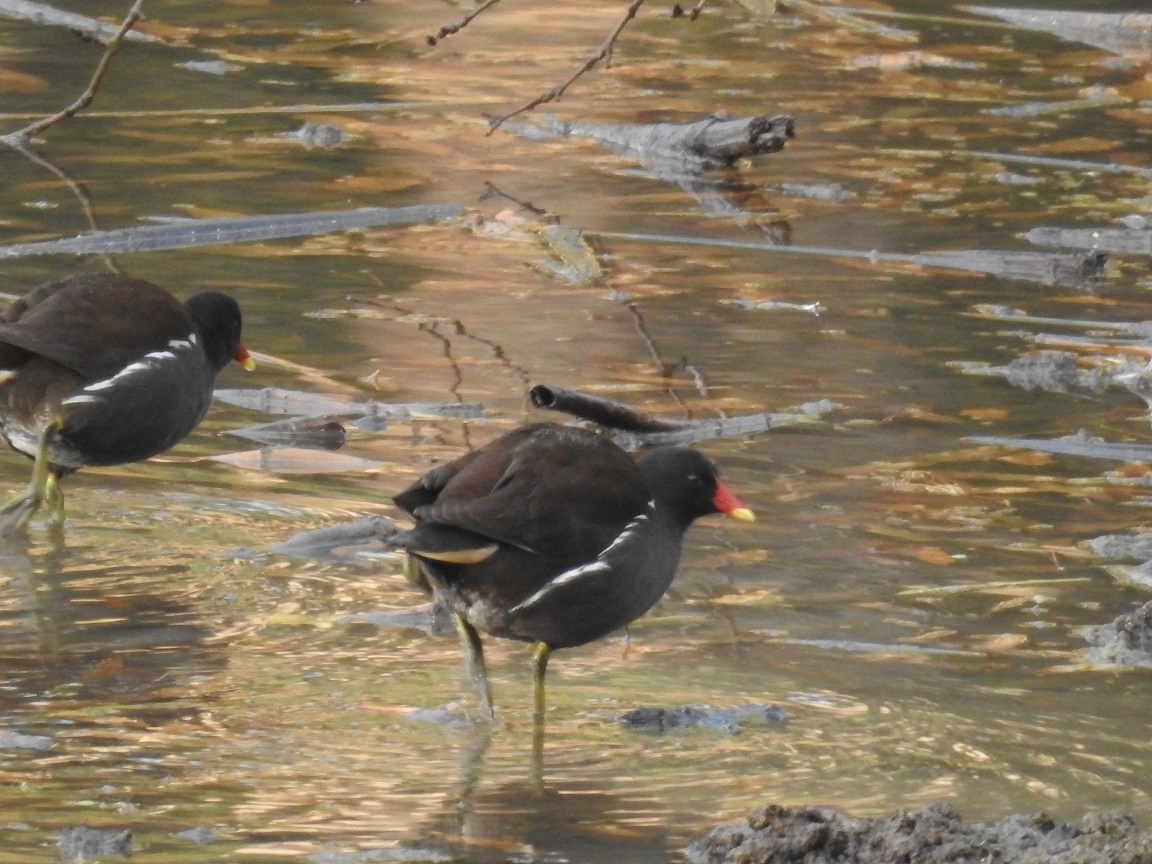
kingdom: Animalia
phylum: Chordata
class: Aves
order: Gruiformes
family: Rallidae
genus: Gallinula
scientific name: Gallinula chloropus
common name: Common moorhen
